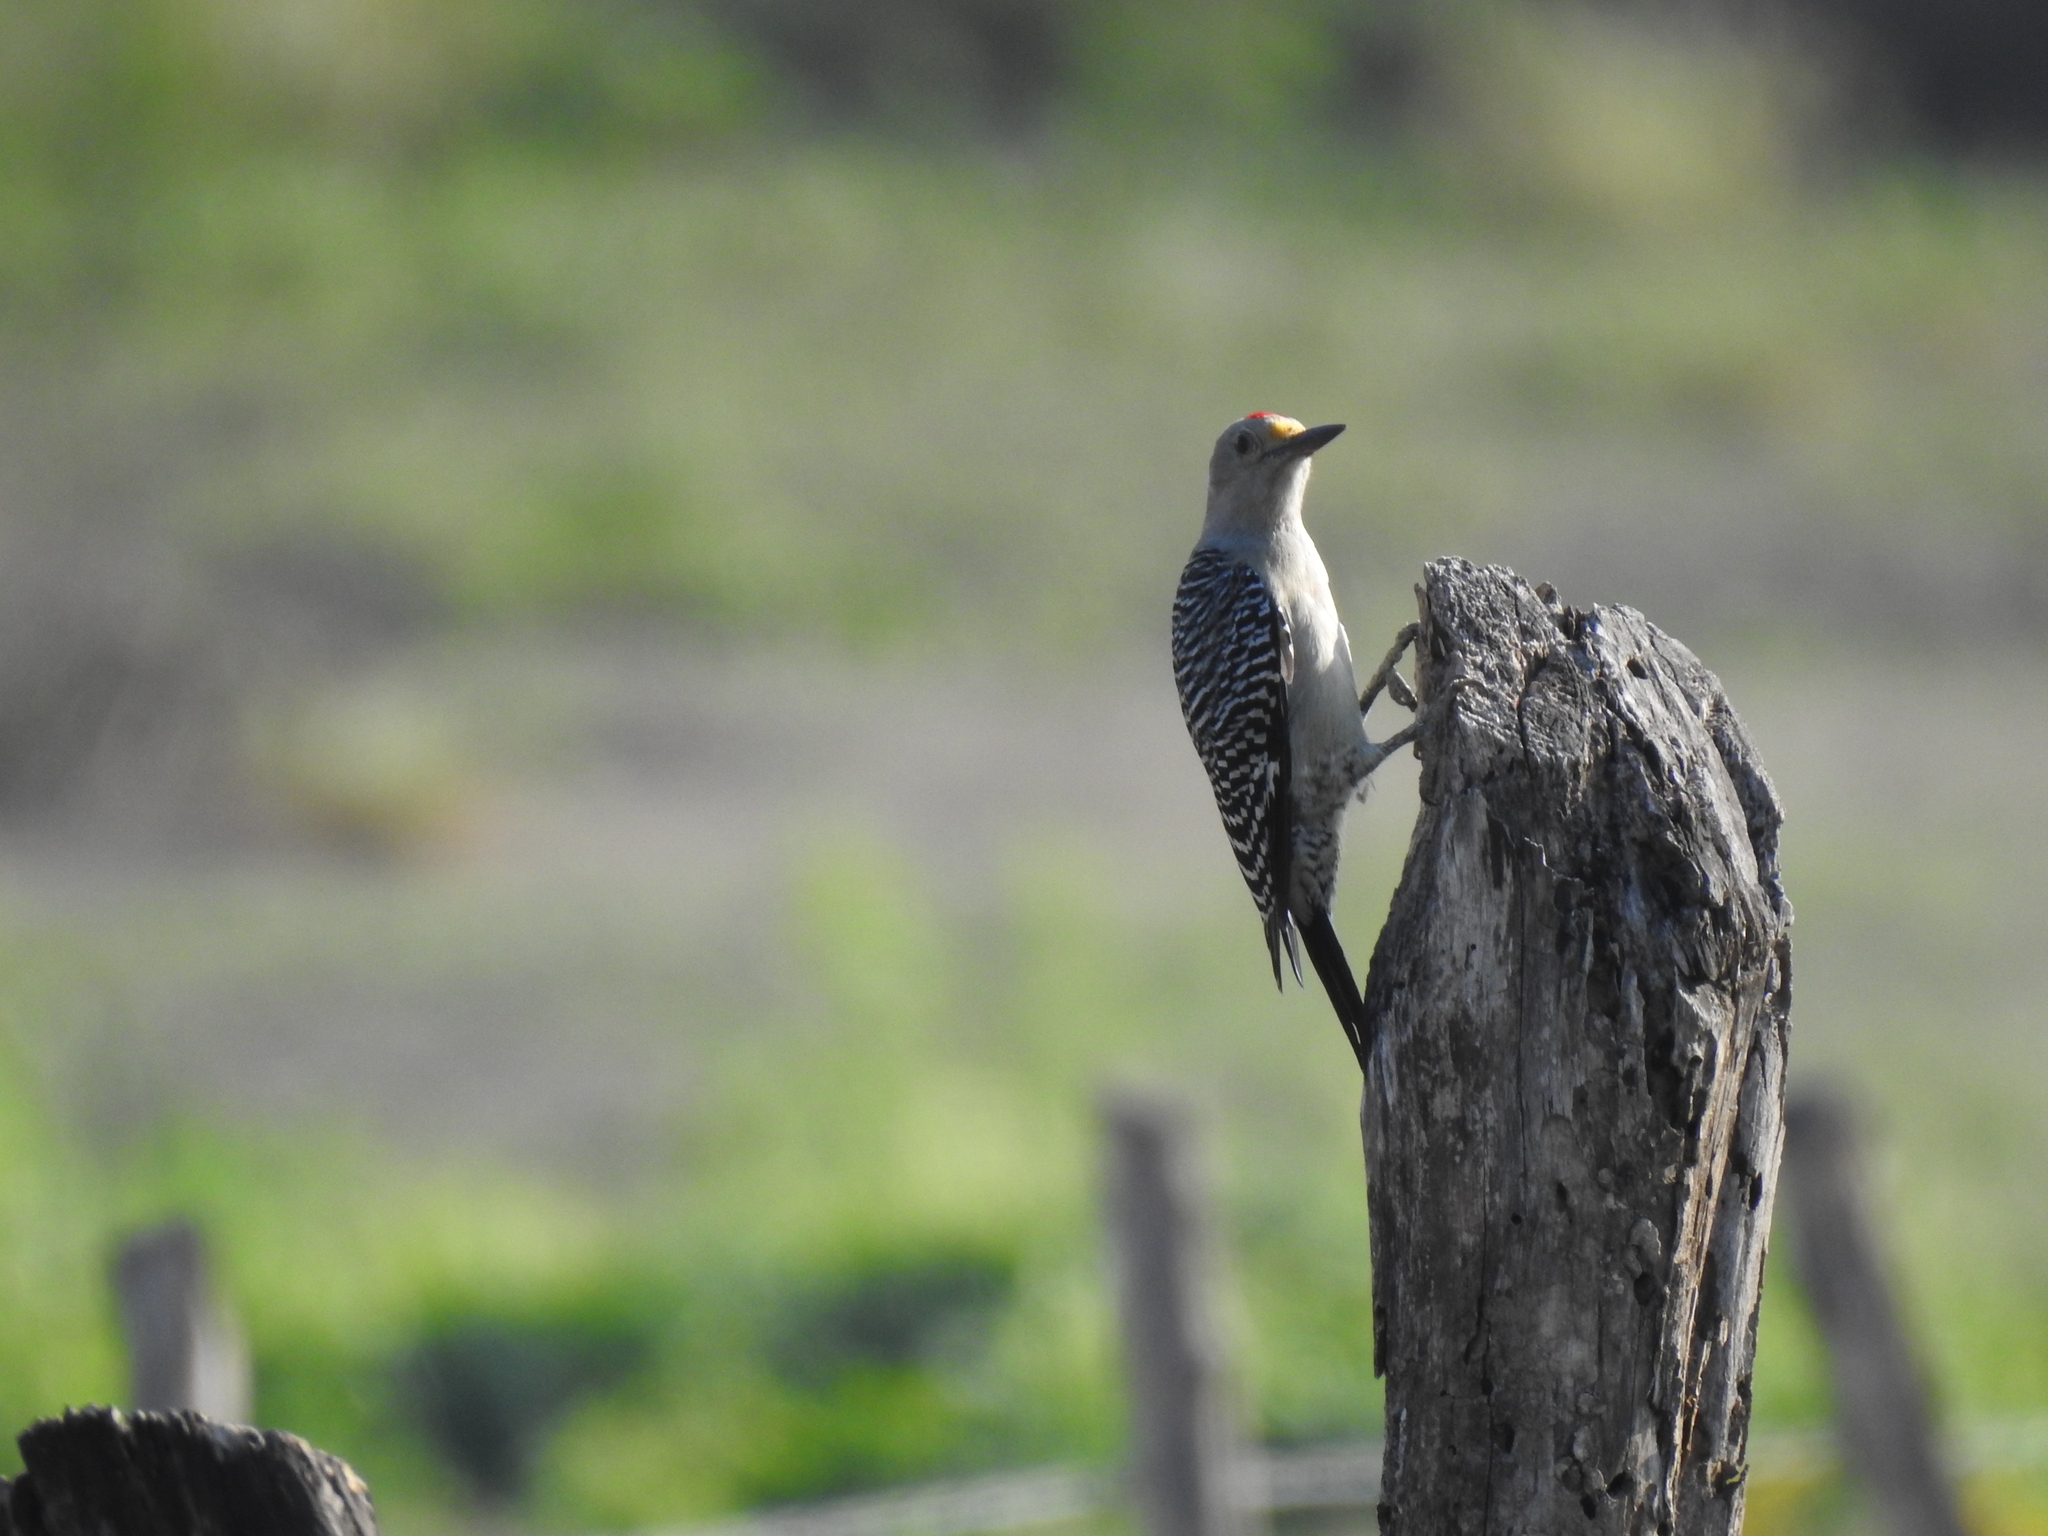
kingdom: Animalia
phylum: Chordata
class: Aves
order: Piciformes
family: Picidae
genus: Melanerpes
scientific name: Melanerpes aurifrons
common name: Golden-fronted woodpecker
